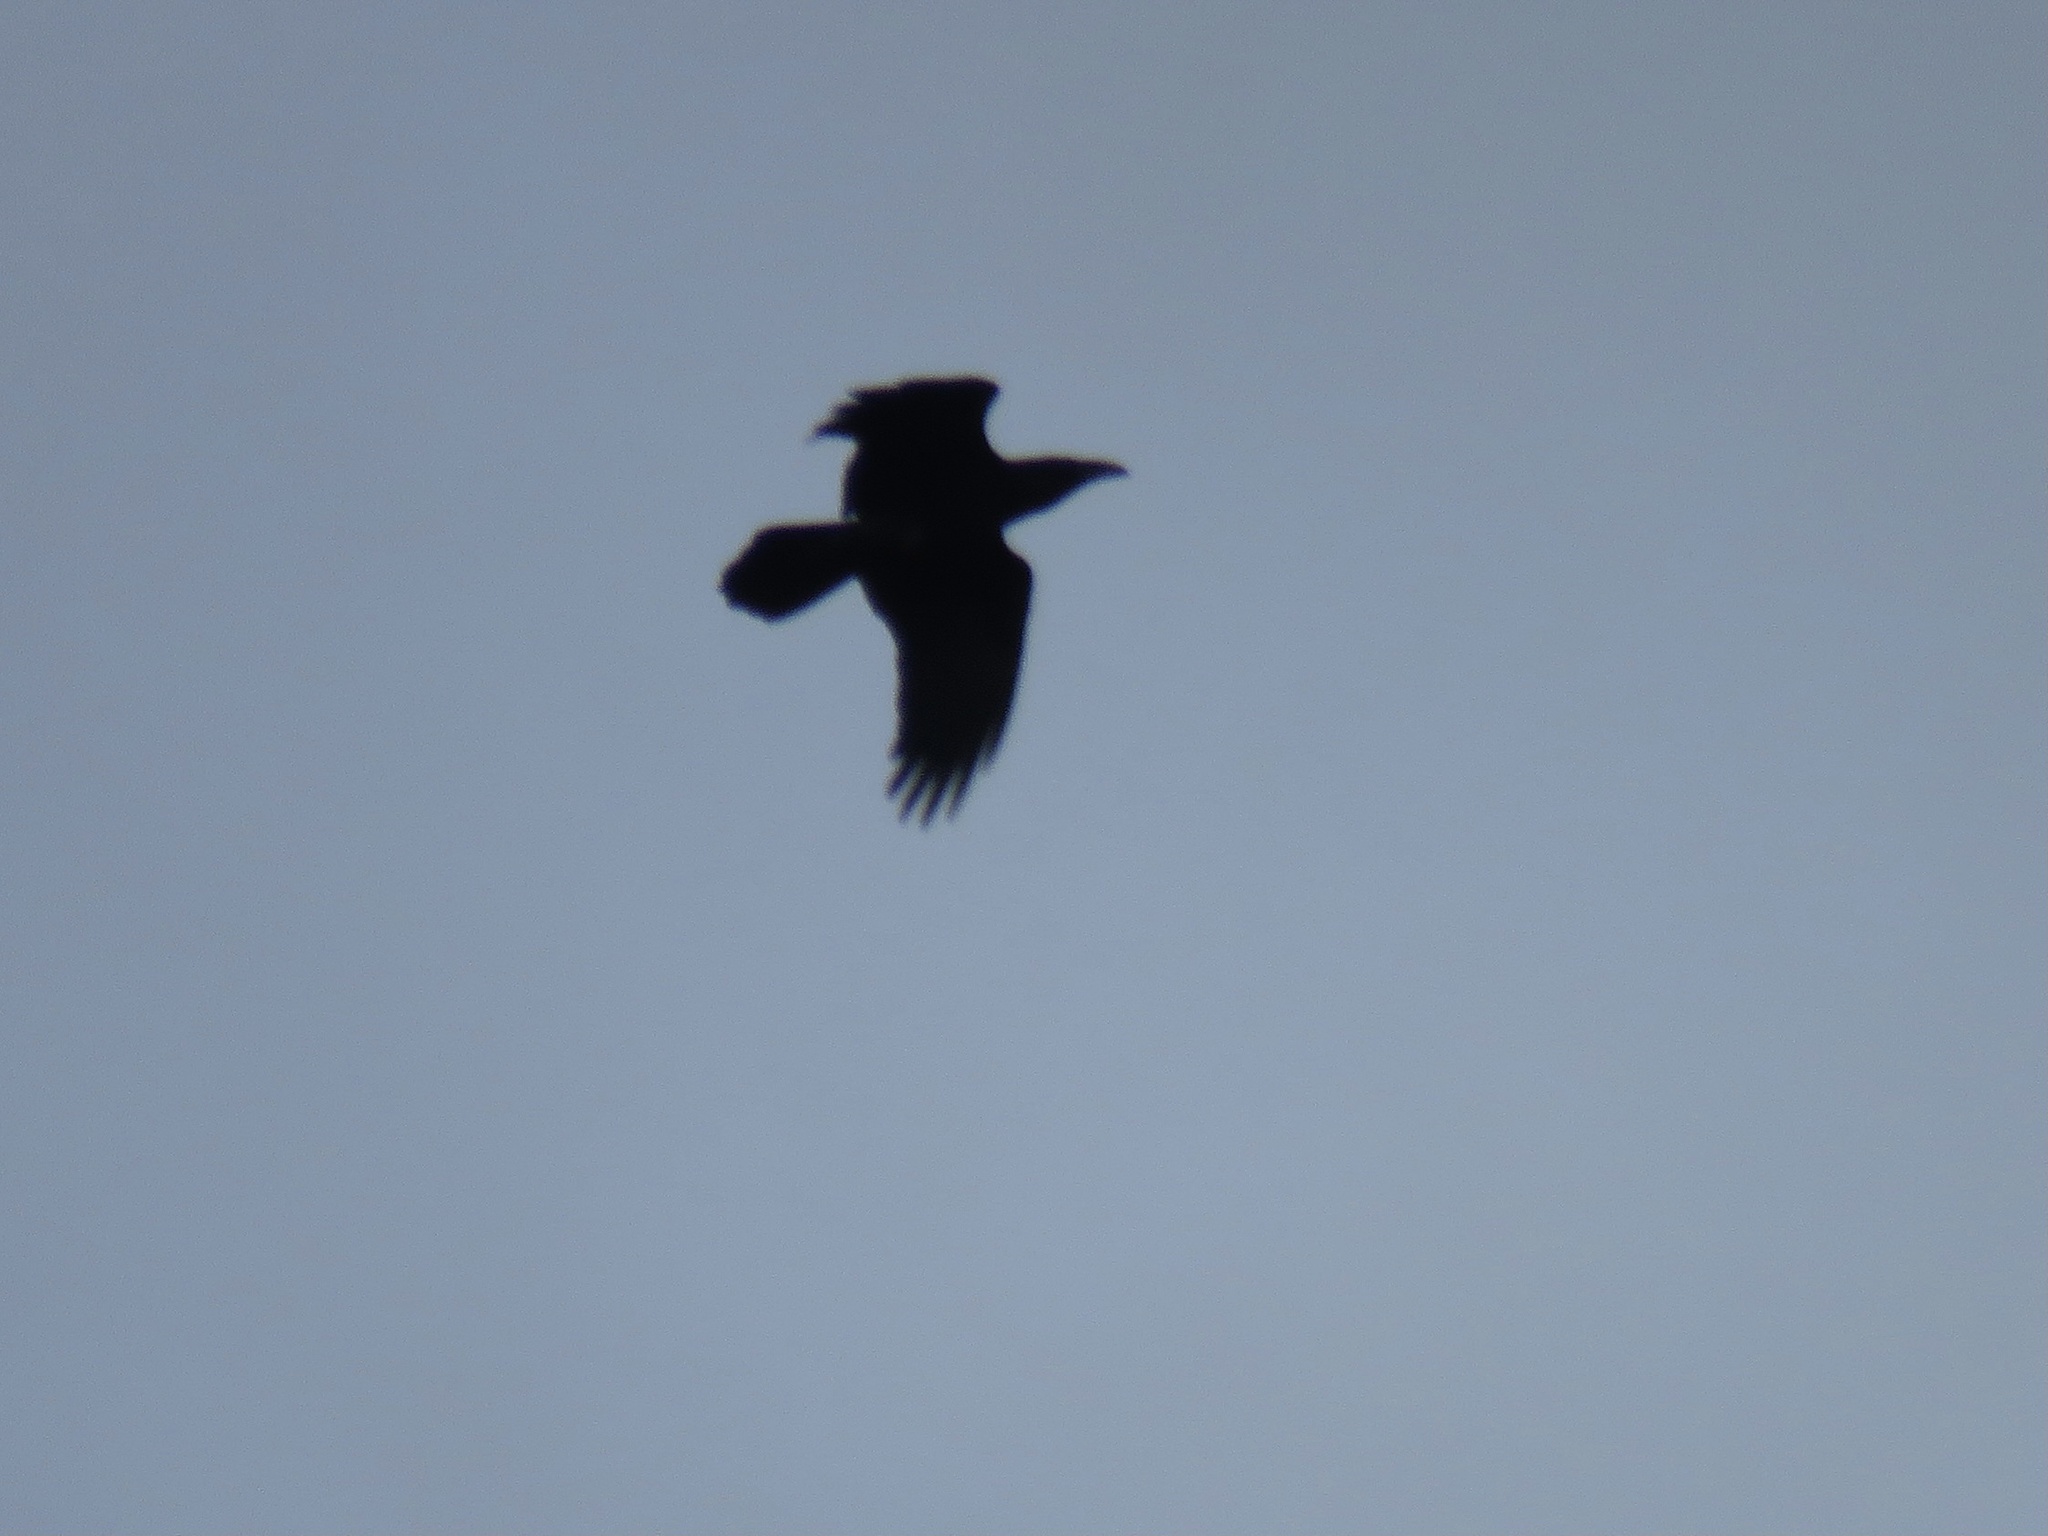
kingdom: Animalia
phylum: Chordata
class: Aves
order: Passeriformes
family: Corvidae
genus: Corvus
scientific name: Corvus corax
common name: Common raven
